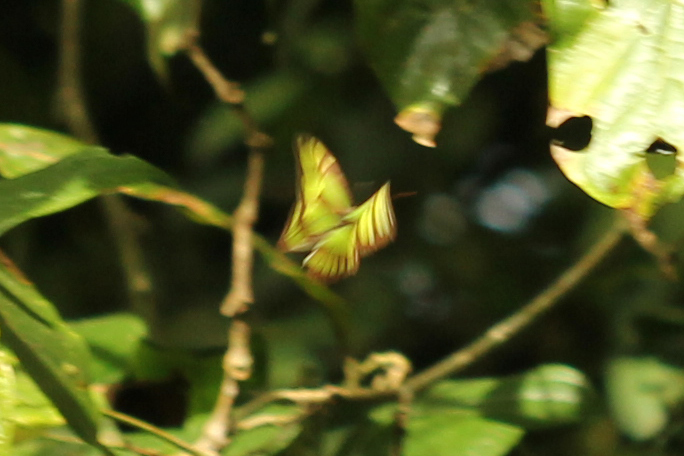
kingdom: Animalia
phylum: Arthropoda
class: Insecta
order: Lepidoptera
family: Nymphalidae
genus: Philaethria
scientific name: Philaethria dido
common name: Scarce bamboo page
